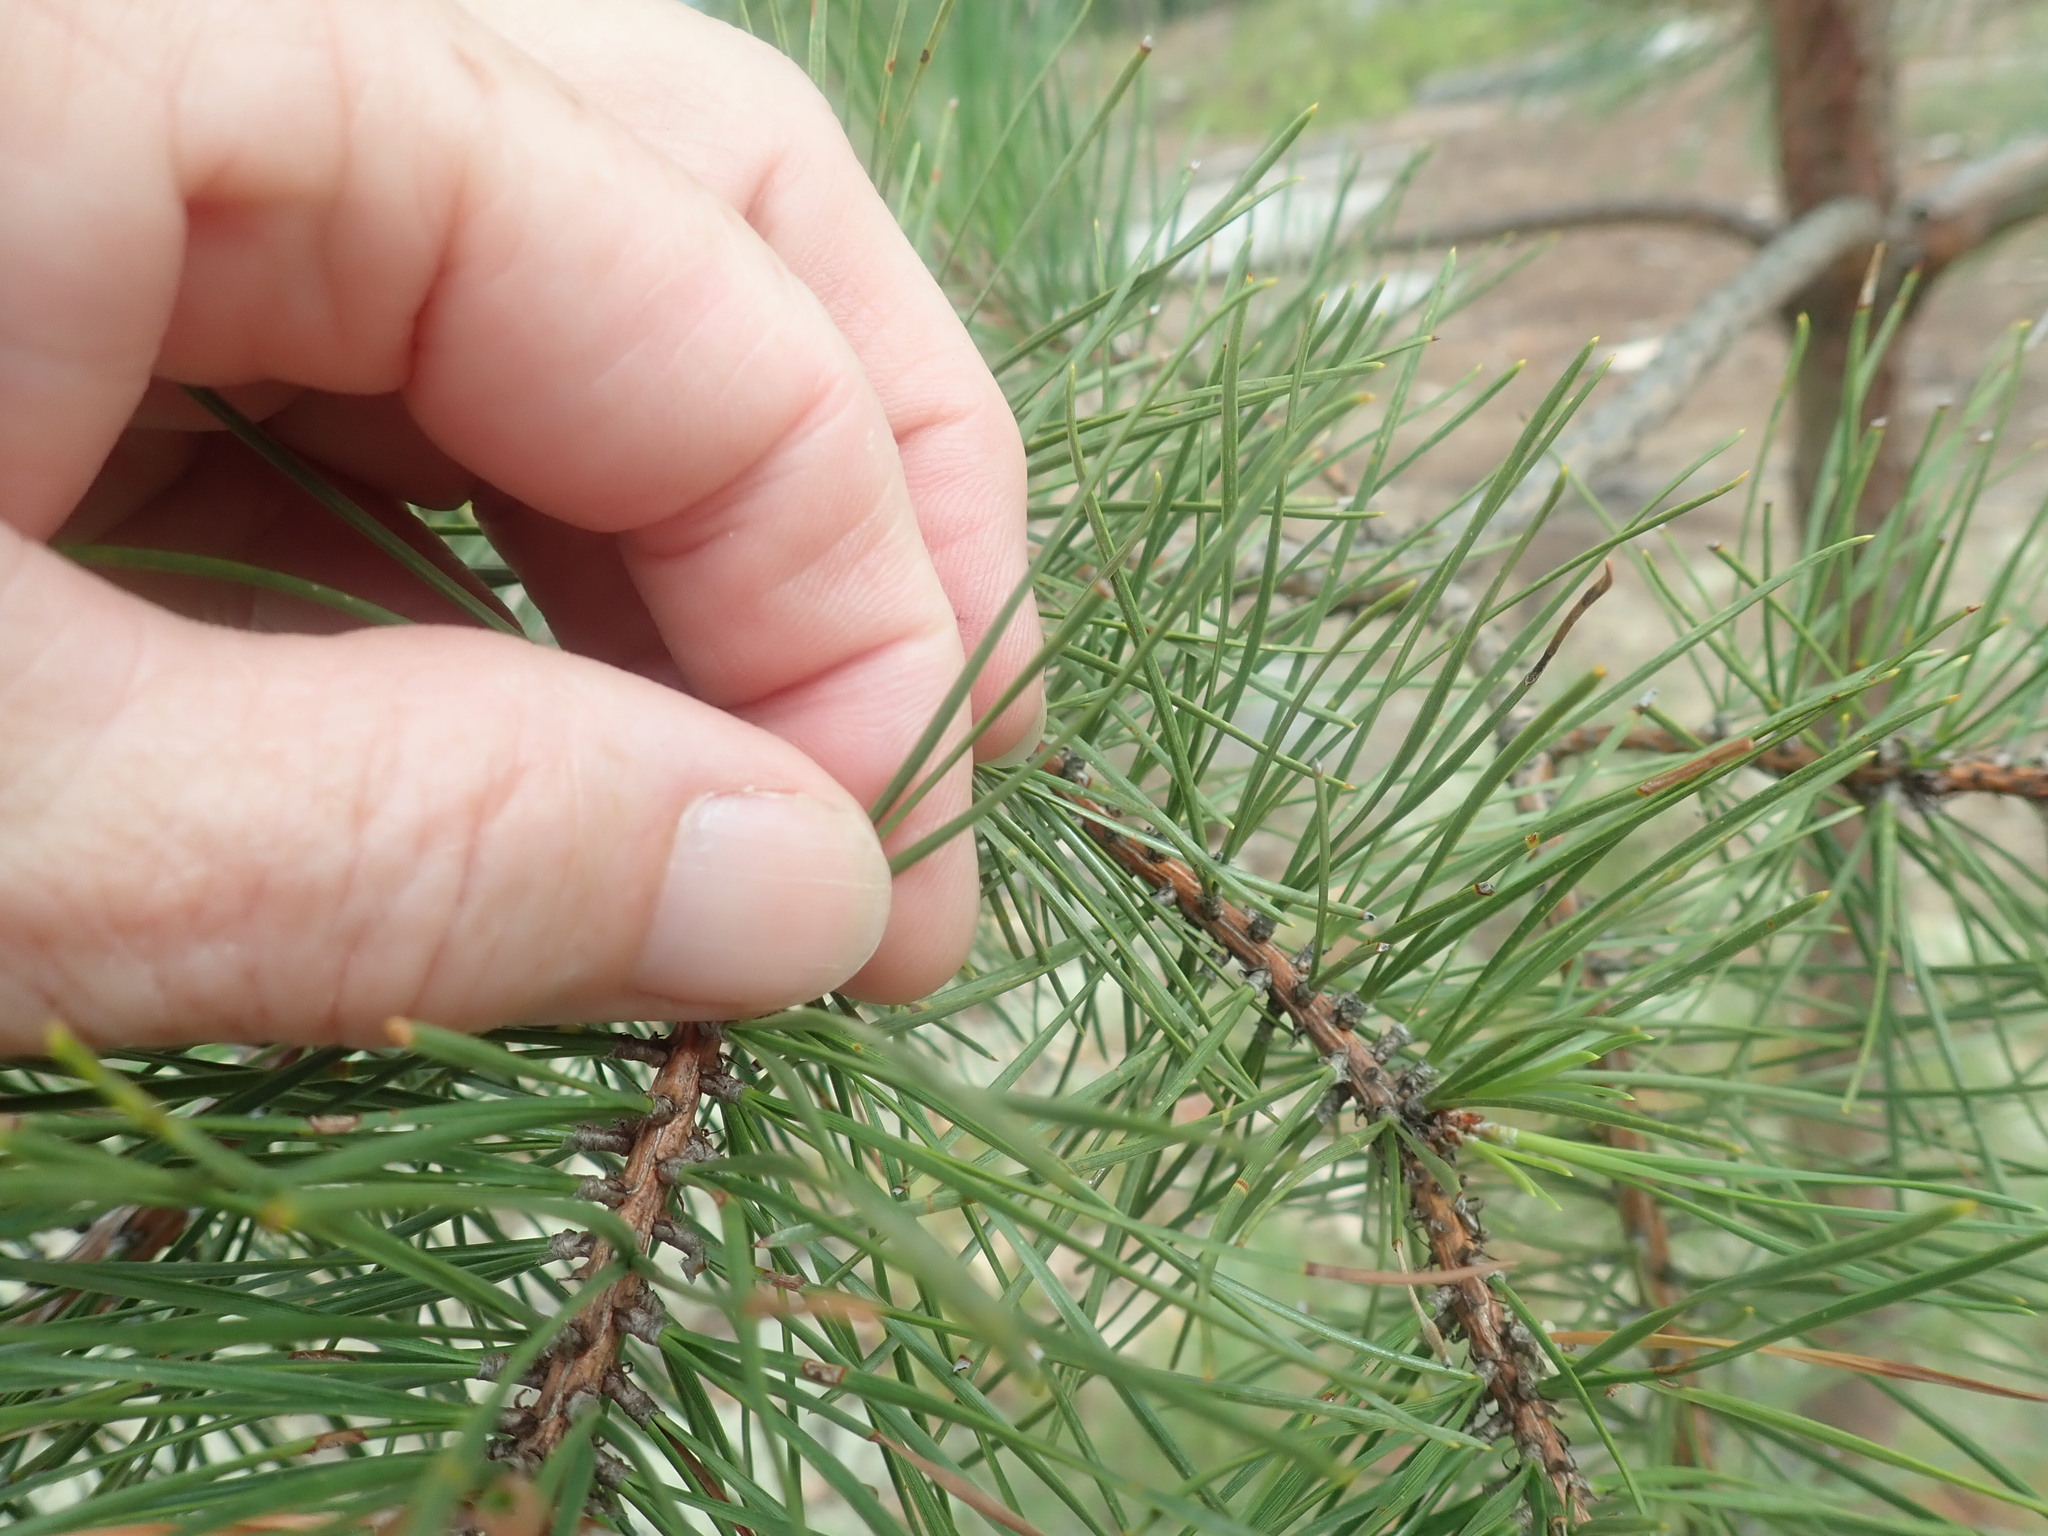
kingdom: Plantae
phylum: Tracheophyta
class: Pinopsida
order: Pinales
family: Pinaceae
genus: Pinus
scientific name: Pinus rigida
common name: Pitch pine
